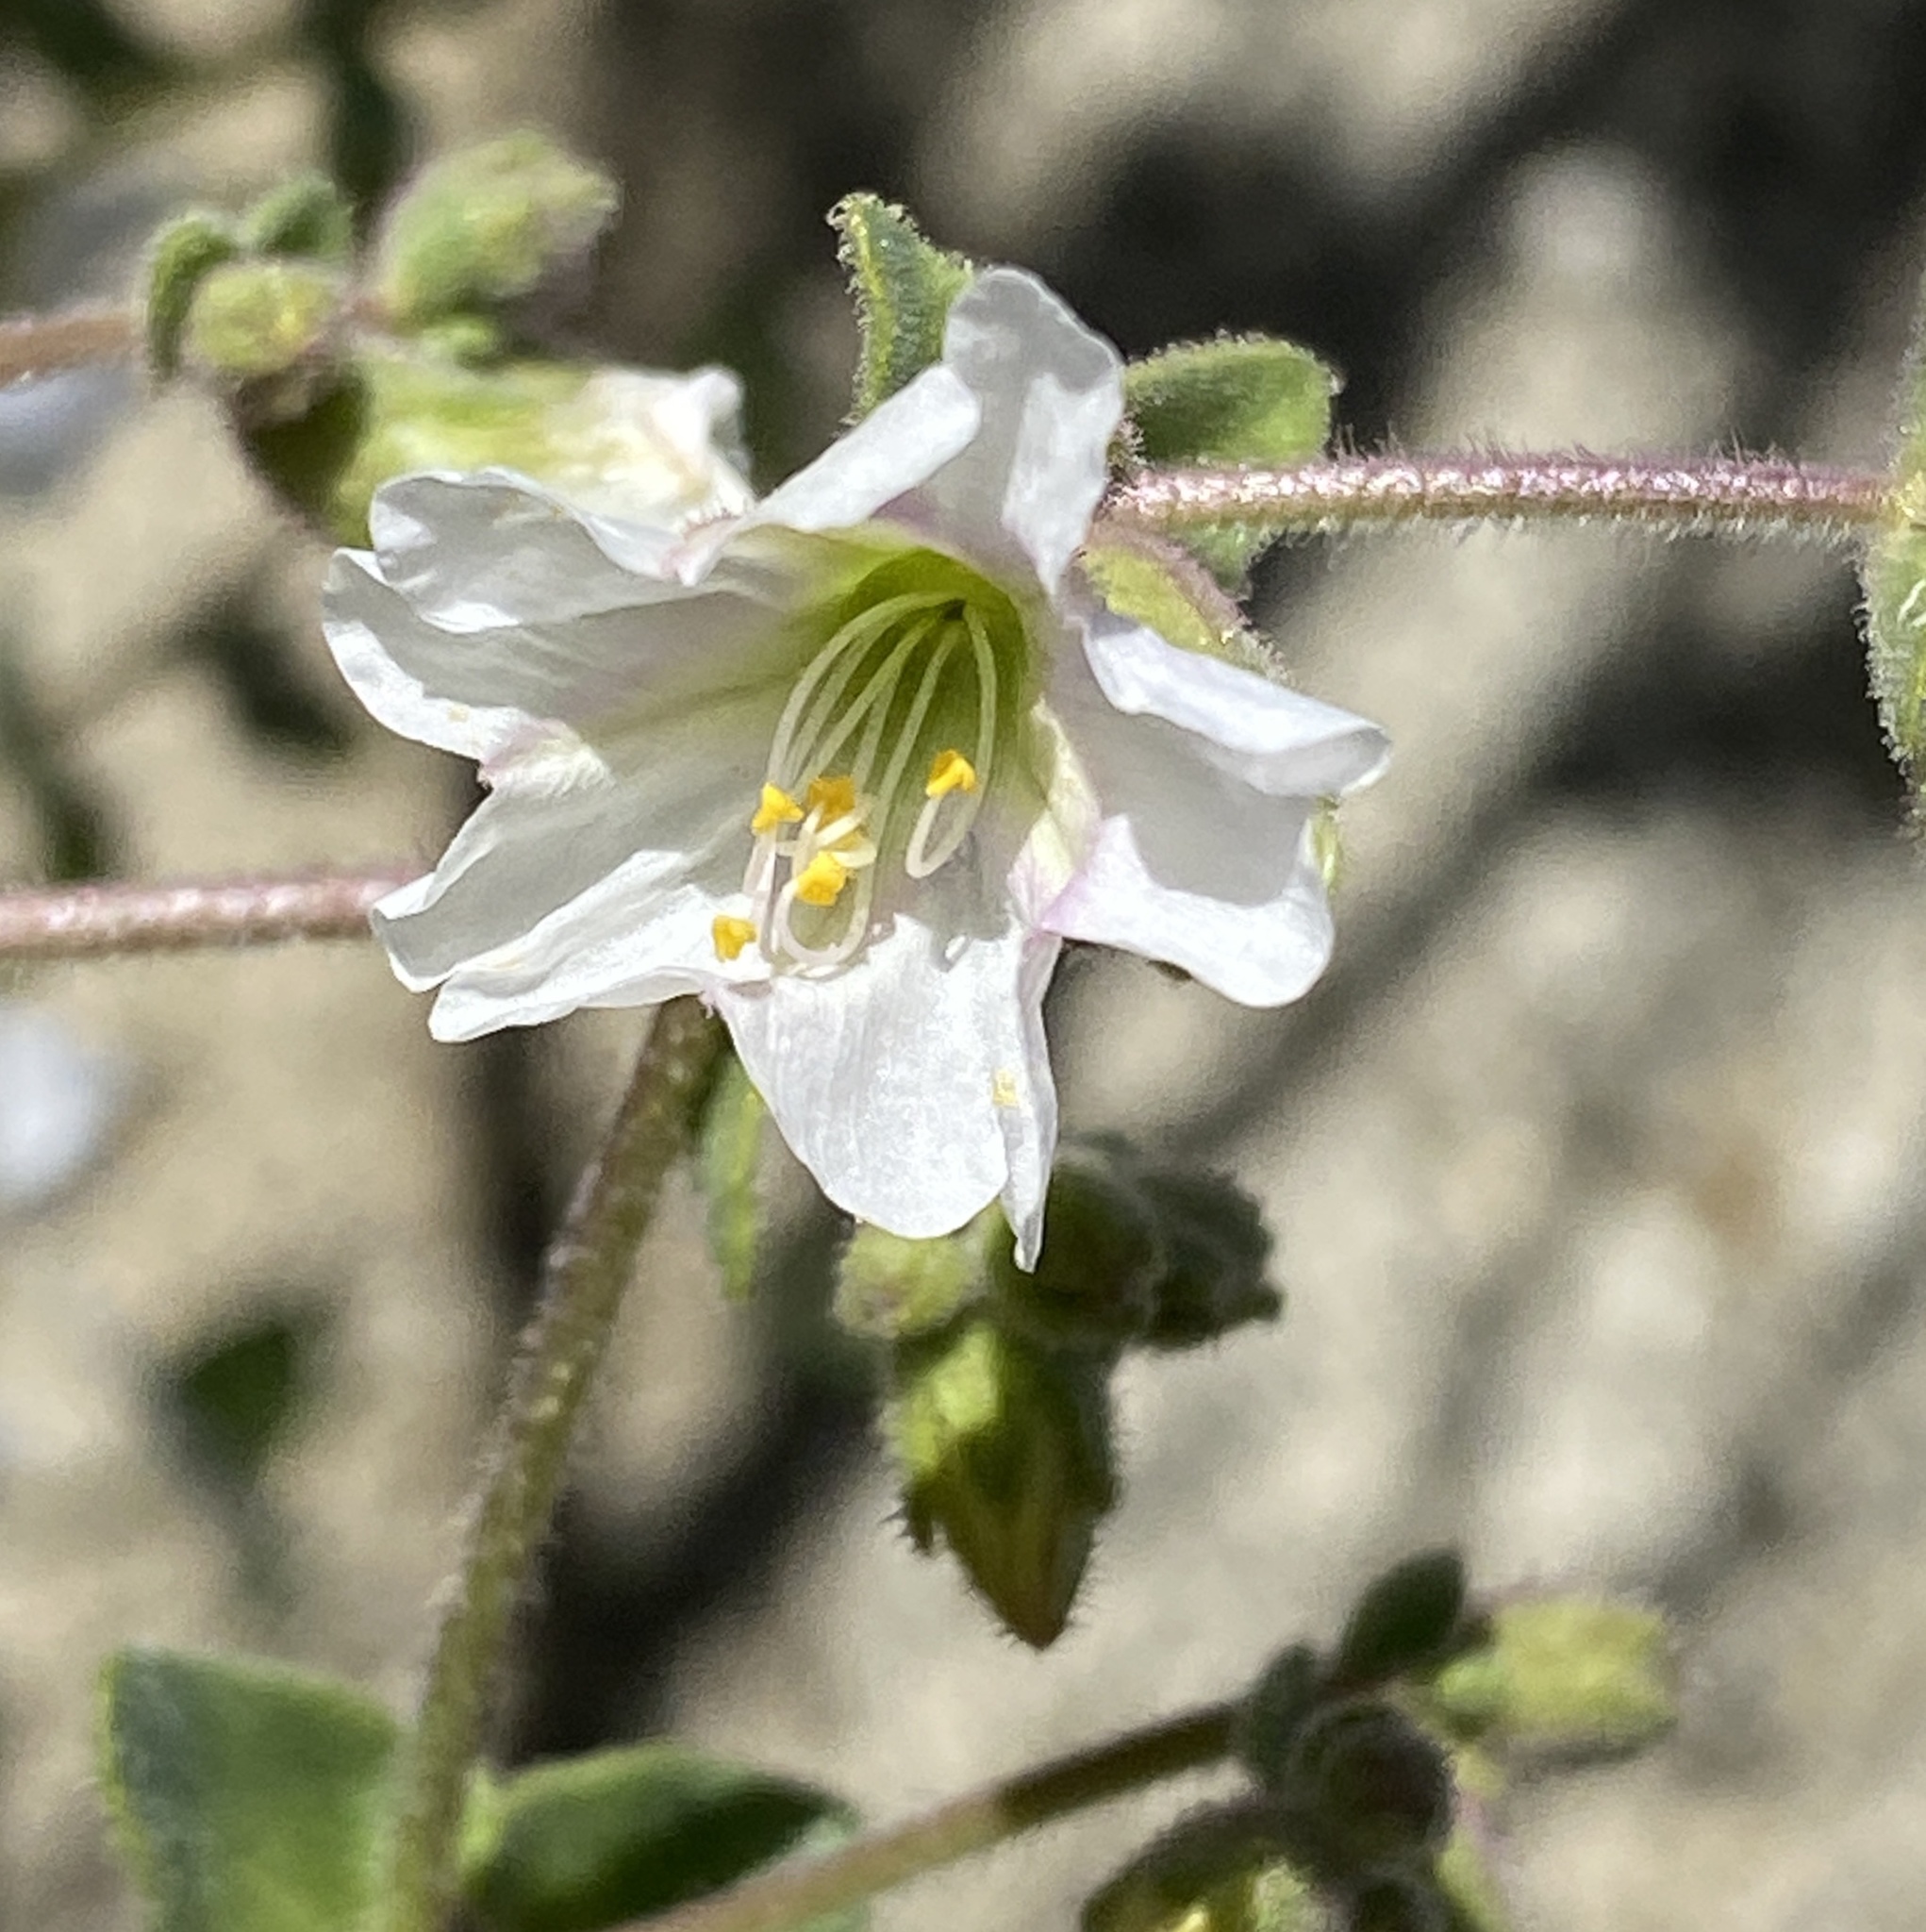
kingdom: Plantae
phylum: Tracheophyta
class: Magnoliopsida
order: Caryophyllales
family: Nyctaginaceae
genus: Mirabilis
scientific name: Mirabilis laevis
